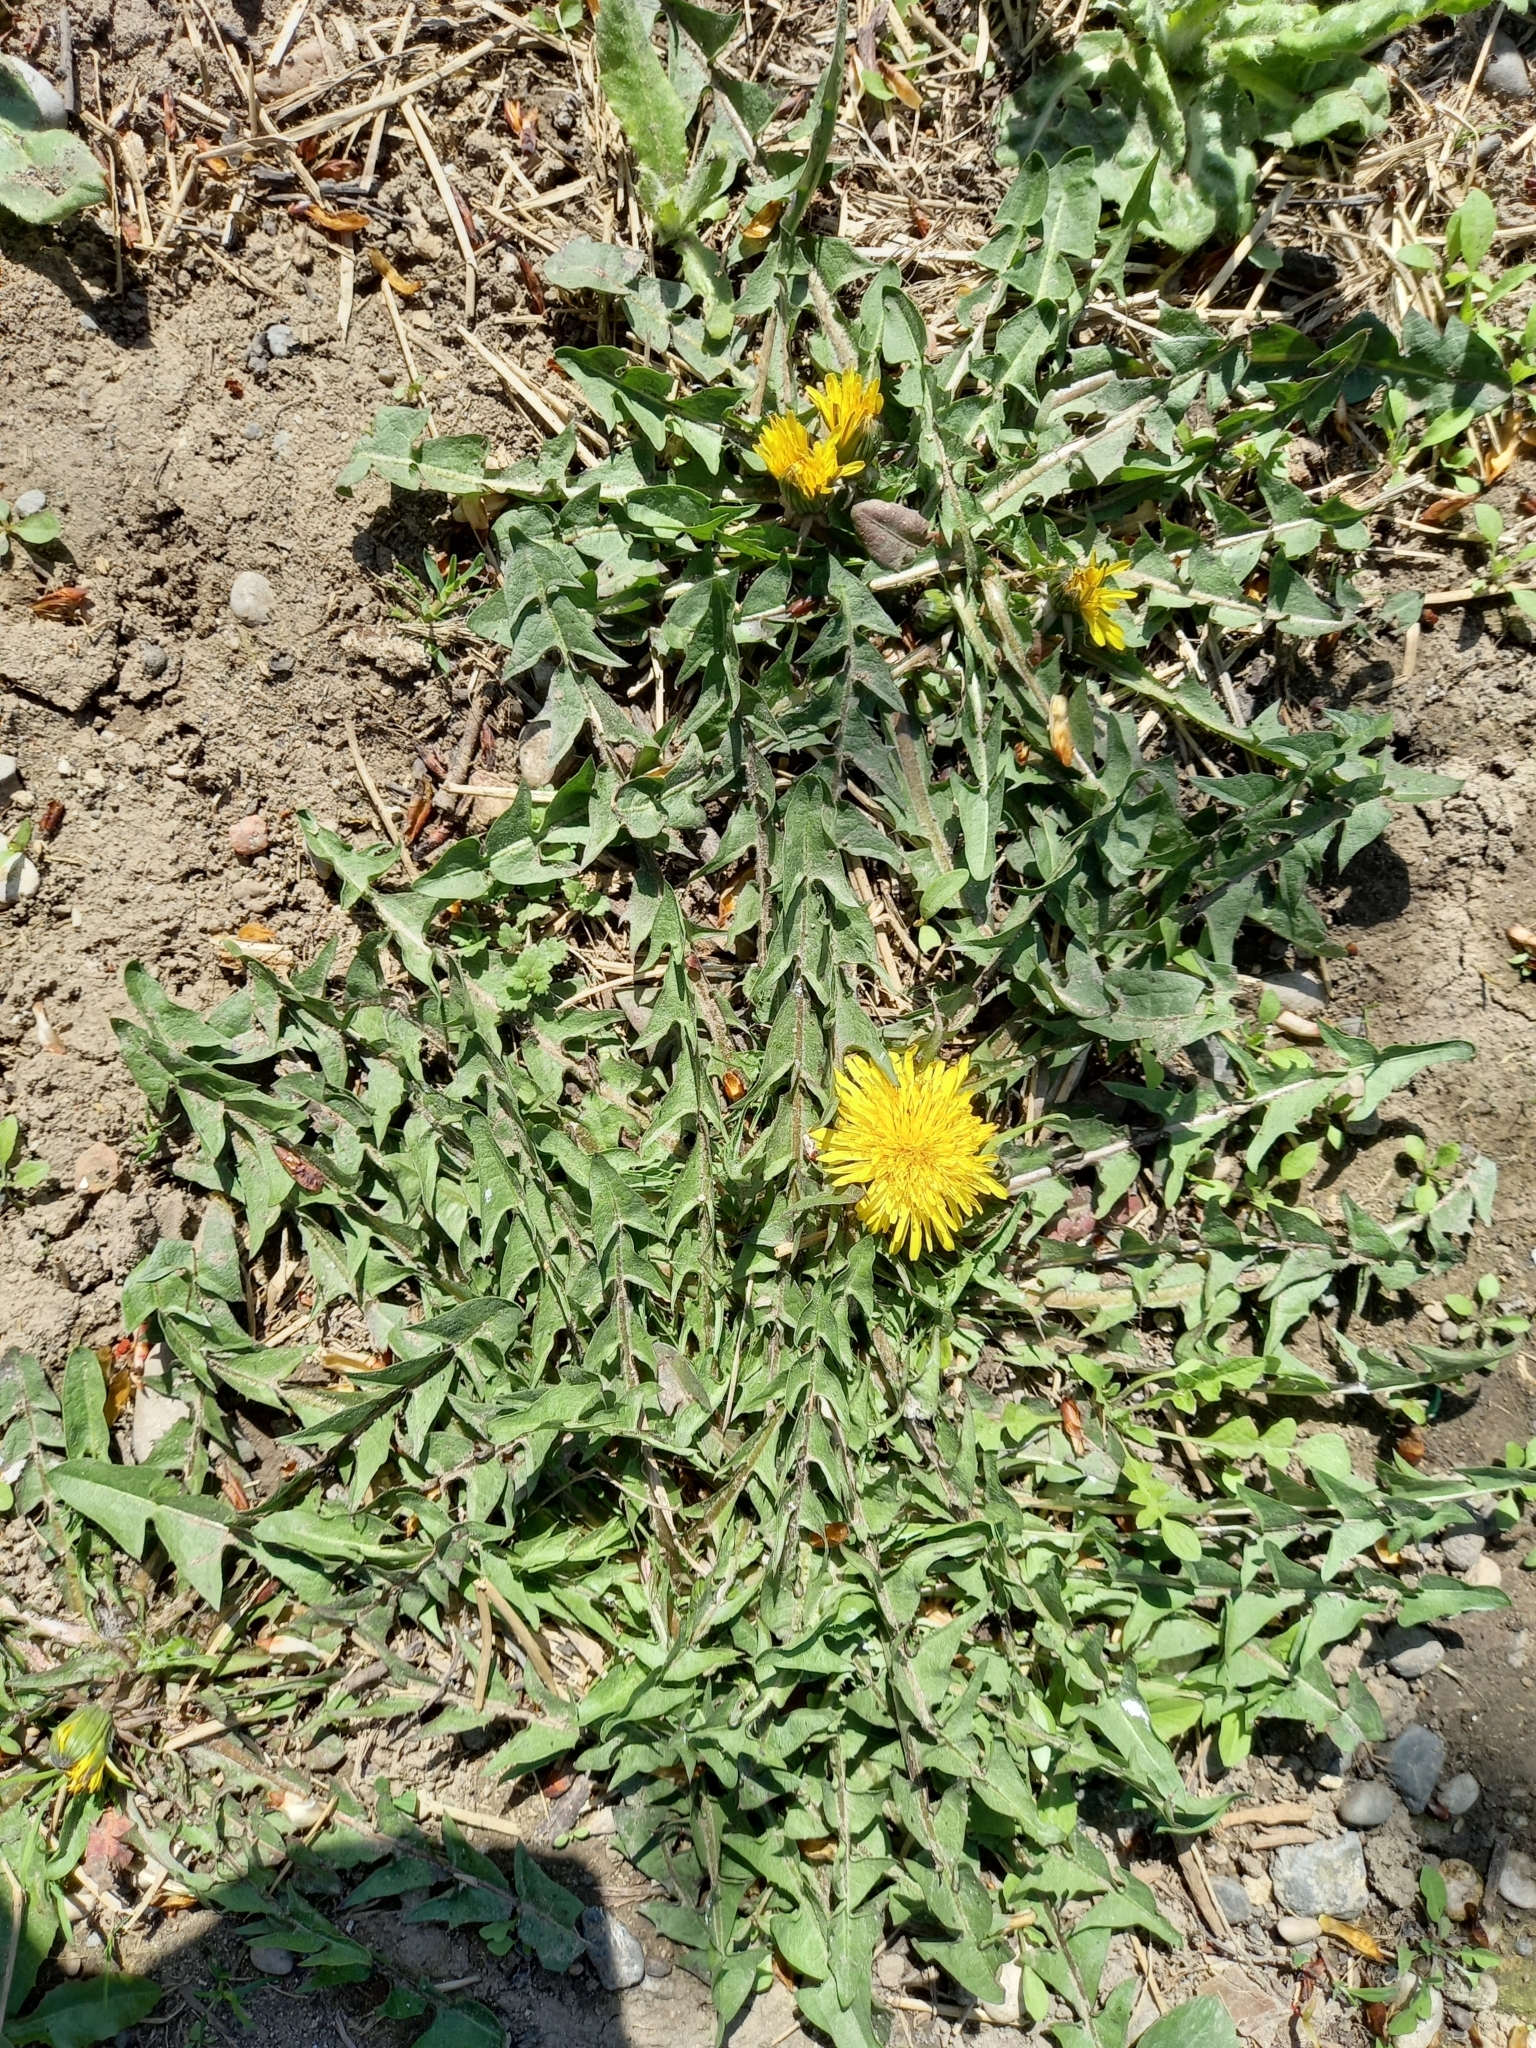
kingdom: Plantae
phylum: Tracheophyta
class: Magnoliopsida
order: Asterales
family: Asteraceae
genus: Taraxacum
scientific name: Taraxacum officinale
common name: Common dandelion
